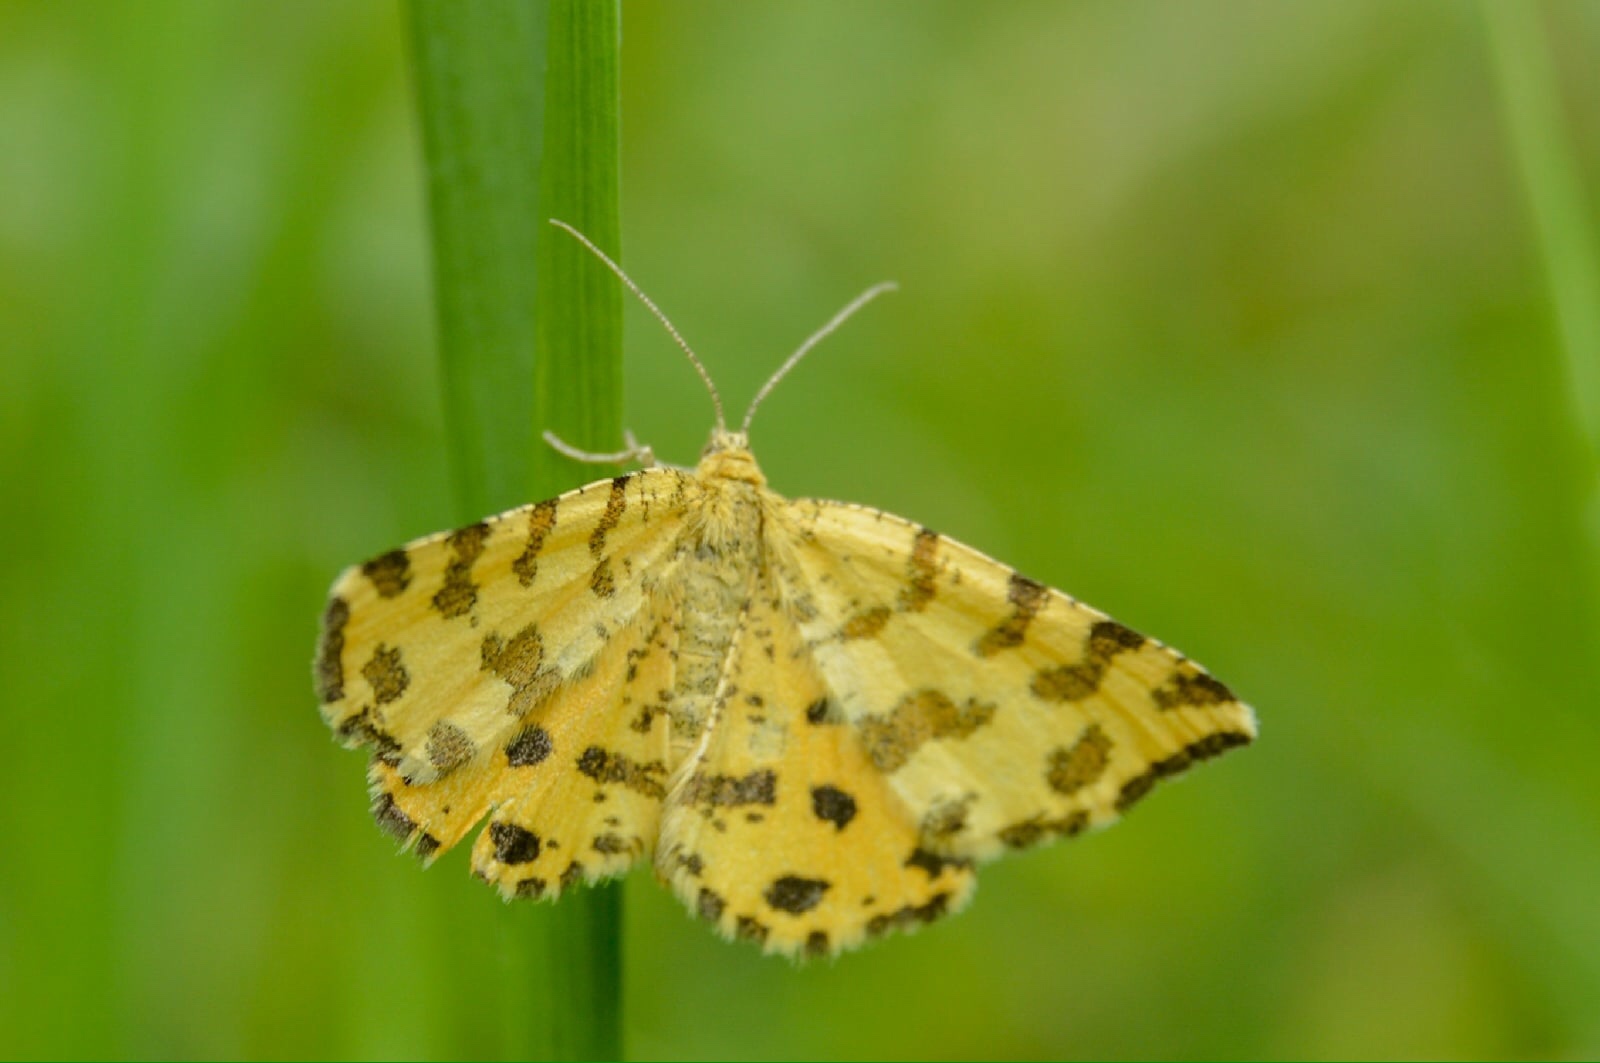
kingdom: Animalia
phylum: Arthropoda
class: Insecta
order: Lepidoptera
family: Geometridae
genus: Pseudopanthera
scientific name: Pseudopanthera macularia
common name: Speckled yellow
